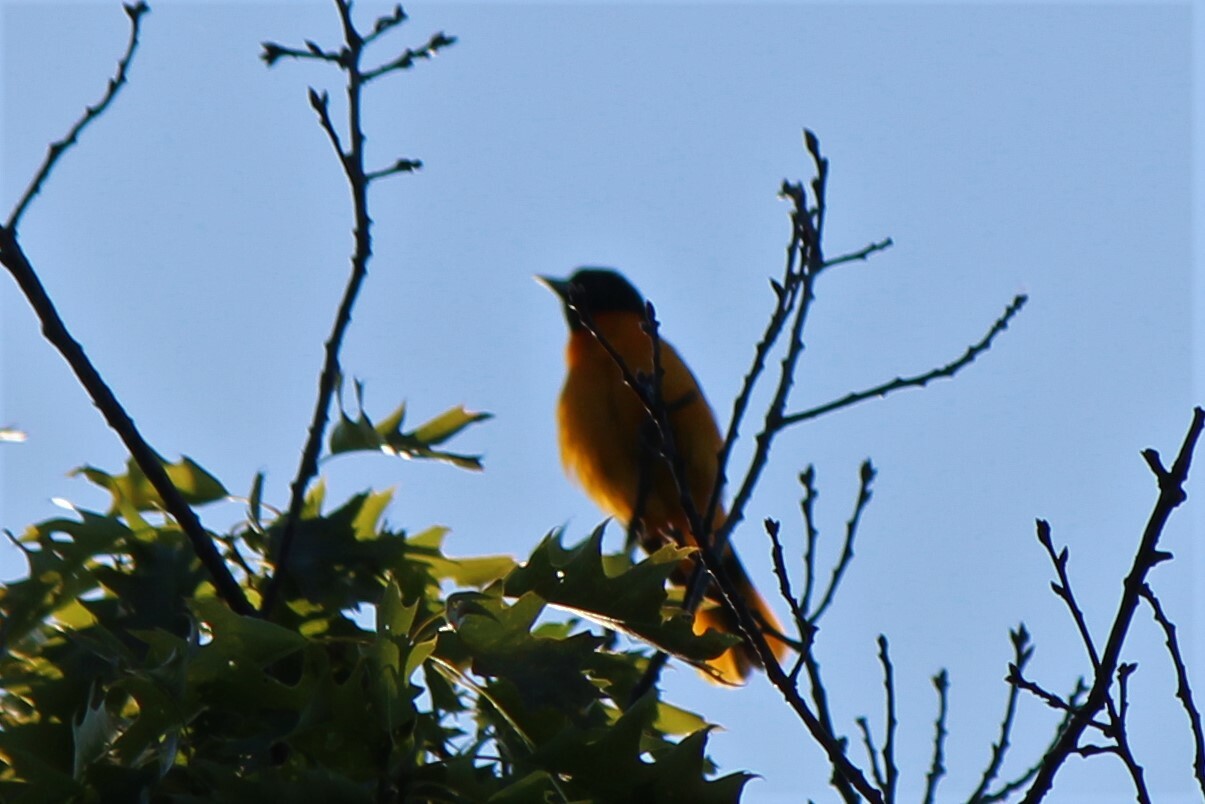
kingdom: Animalia
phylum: Chordata
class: Aves
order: Passeriformes
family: Icteridae
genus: Icterus
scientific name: Icterus galbula
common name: Baltimore oriole
